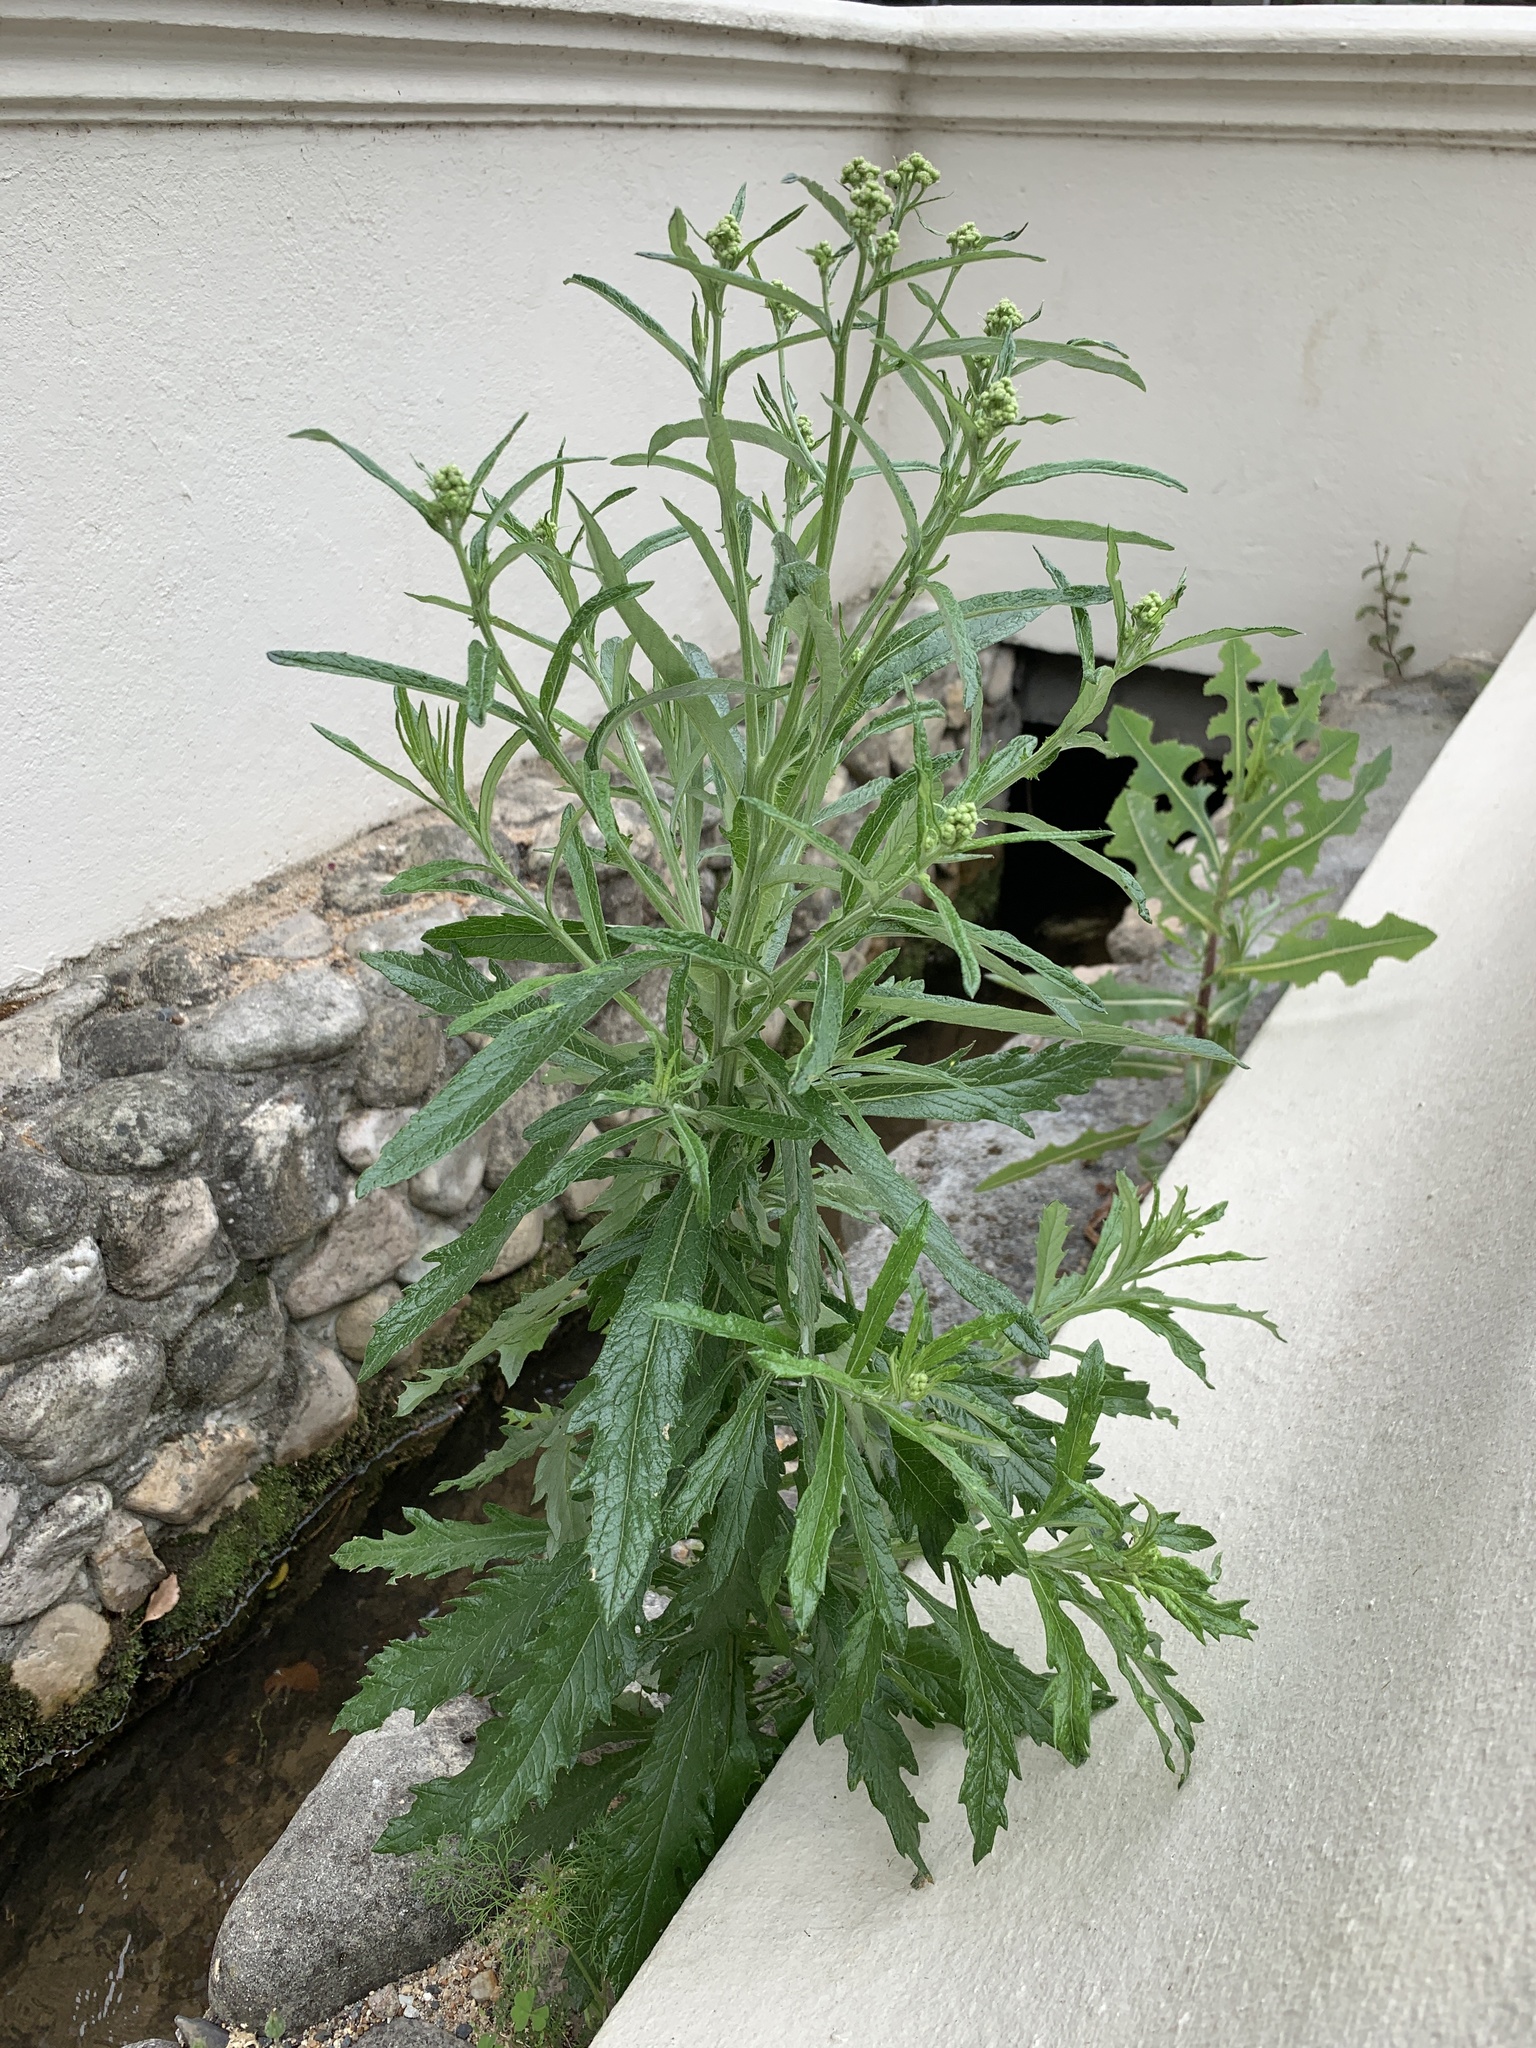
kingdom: Plantae
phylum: Tracheophyta
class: Magnoliopsida
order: Asterales
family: Asteraceae
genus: Senecio
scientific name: Senecio pterophorus
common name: Shoddy ragwort
